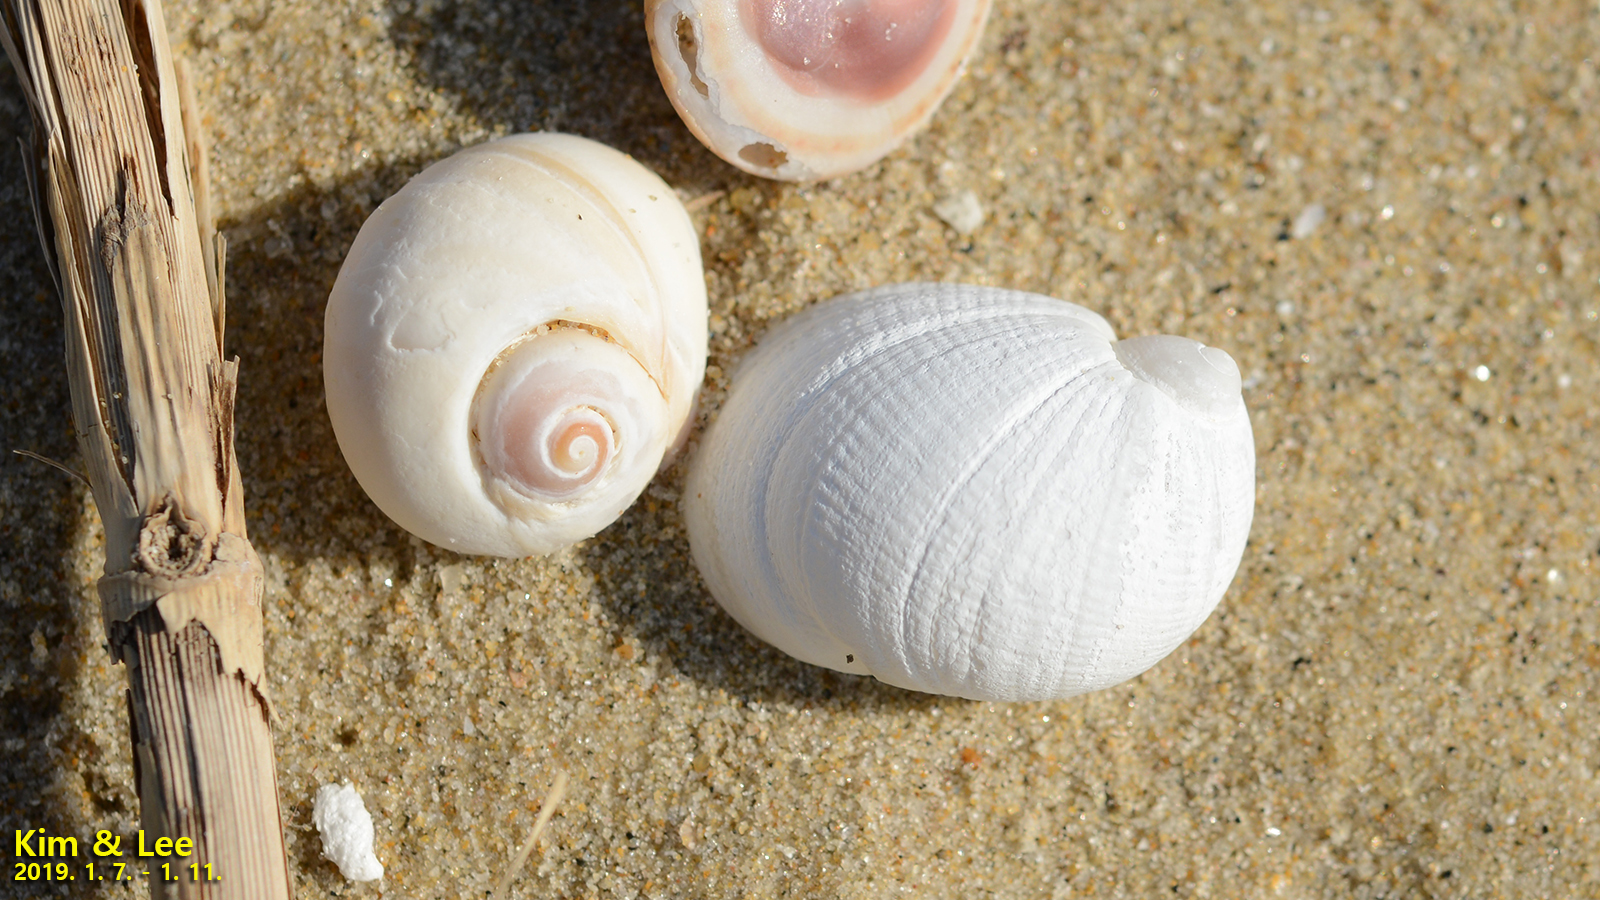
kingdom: Animalia
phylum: Mollusca
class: Gastropoda
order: Littorinimorpha
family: Naticidae
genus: Eunaticina
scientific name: Eunaticina papilla
